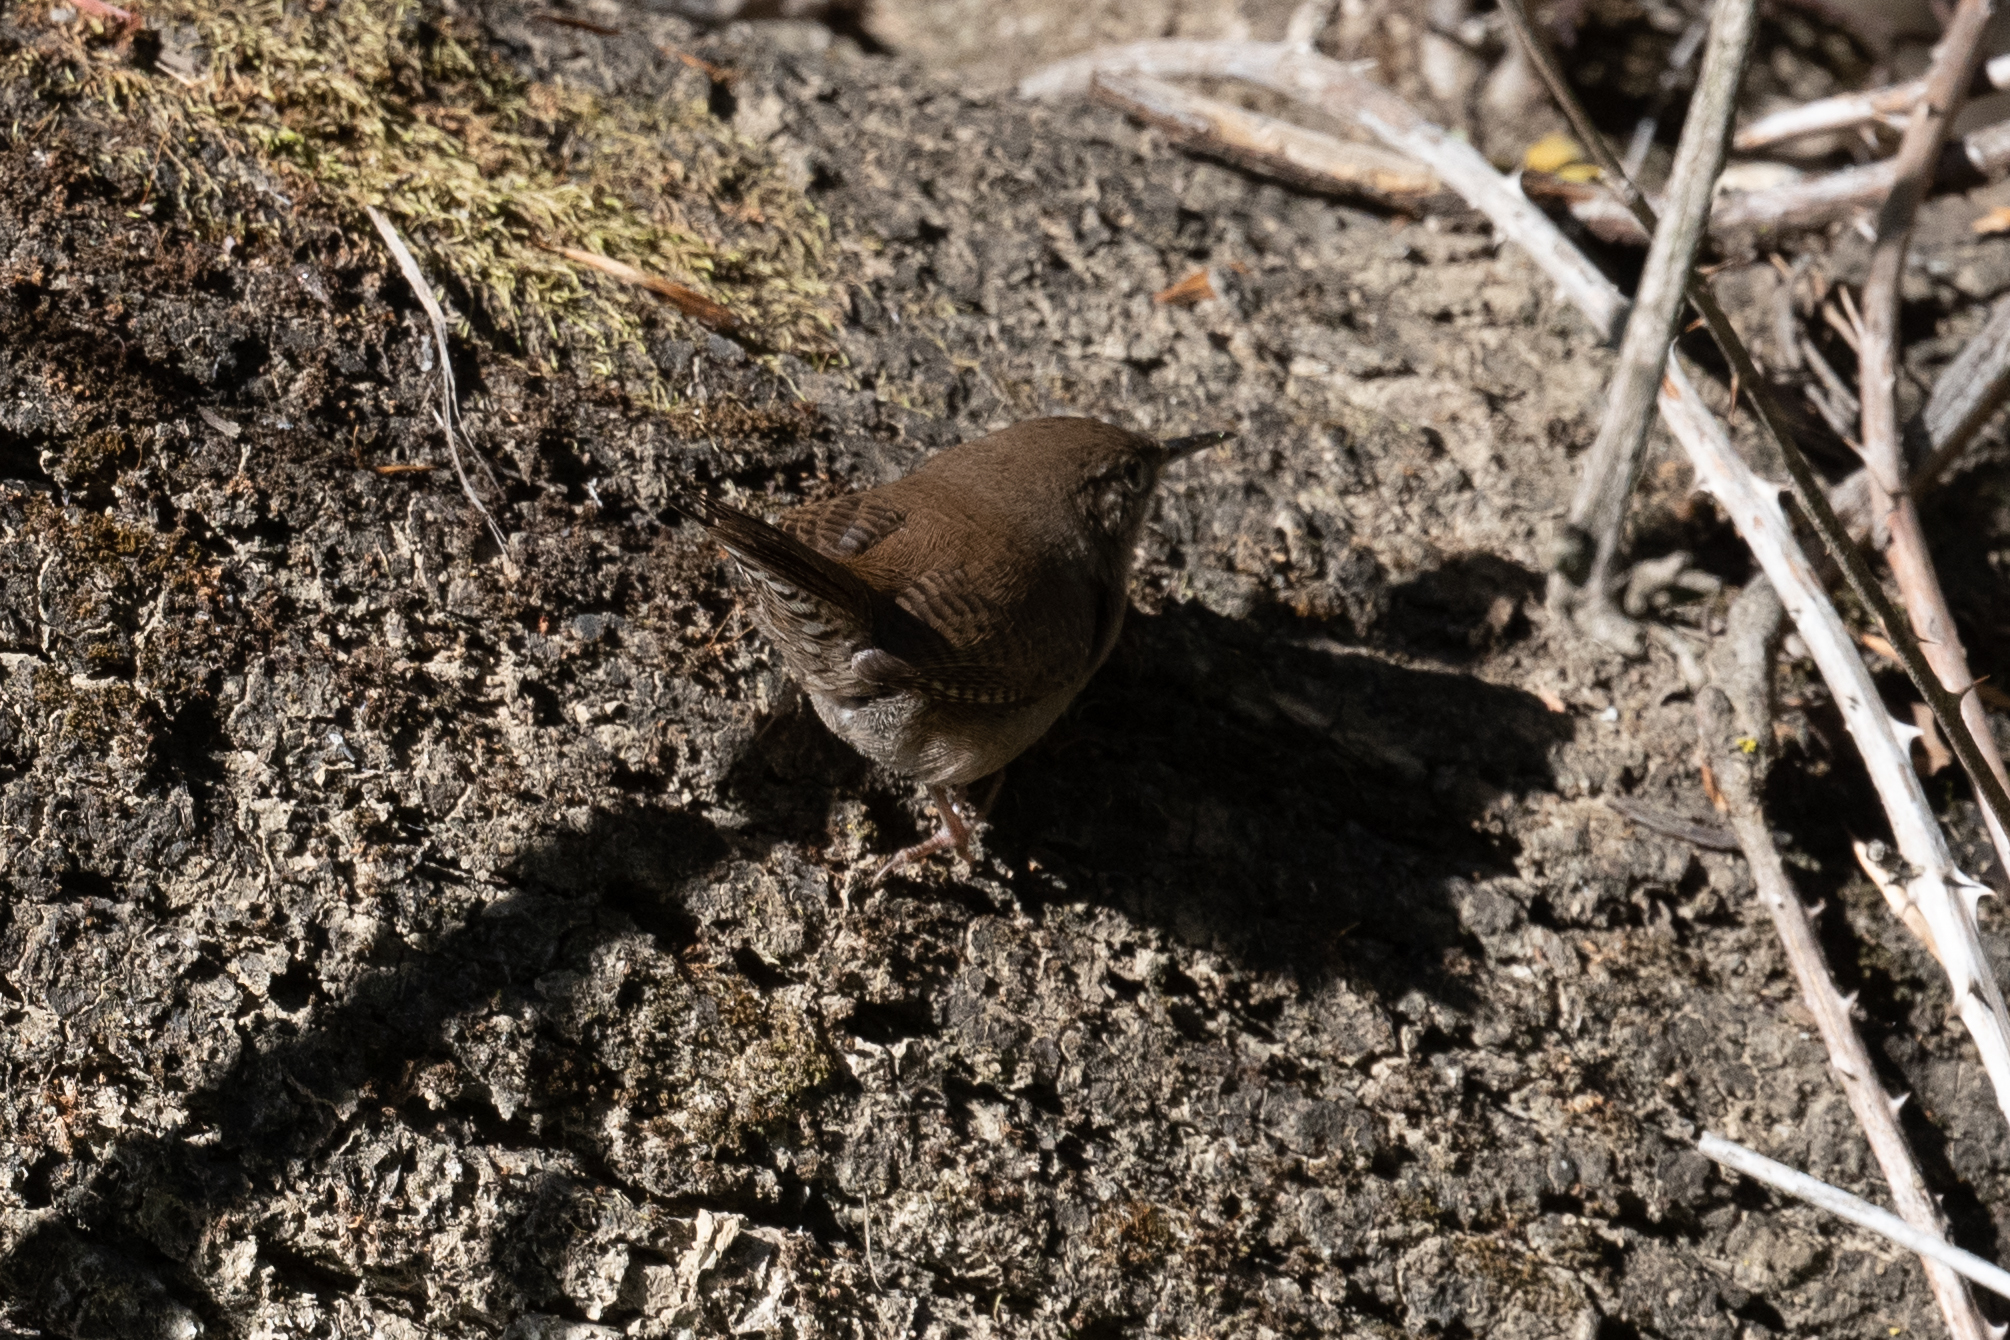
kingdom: Animalia
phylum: Chordata
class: Aves
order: Passeriformes
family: Troglodytidae
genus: Troglodytes
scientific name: Troglodytes aedon
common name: House wren
